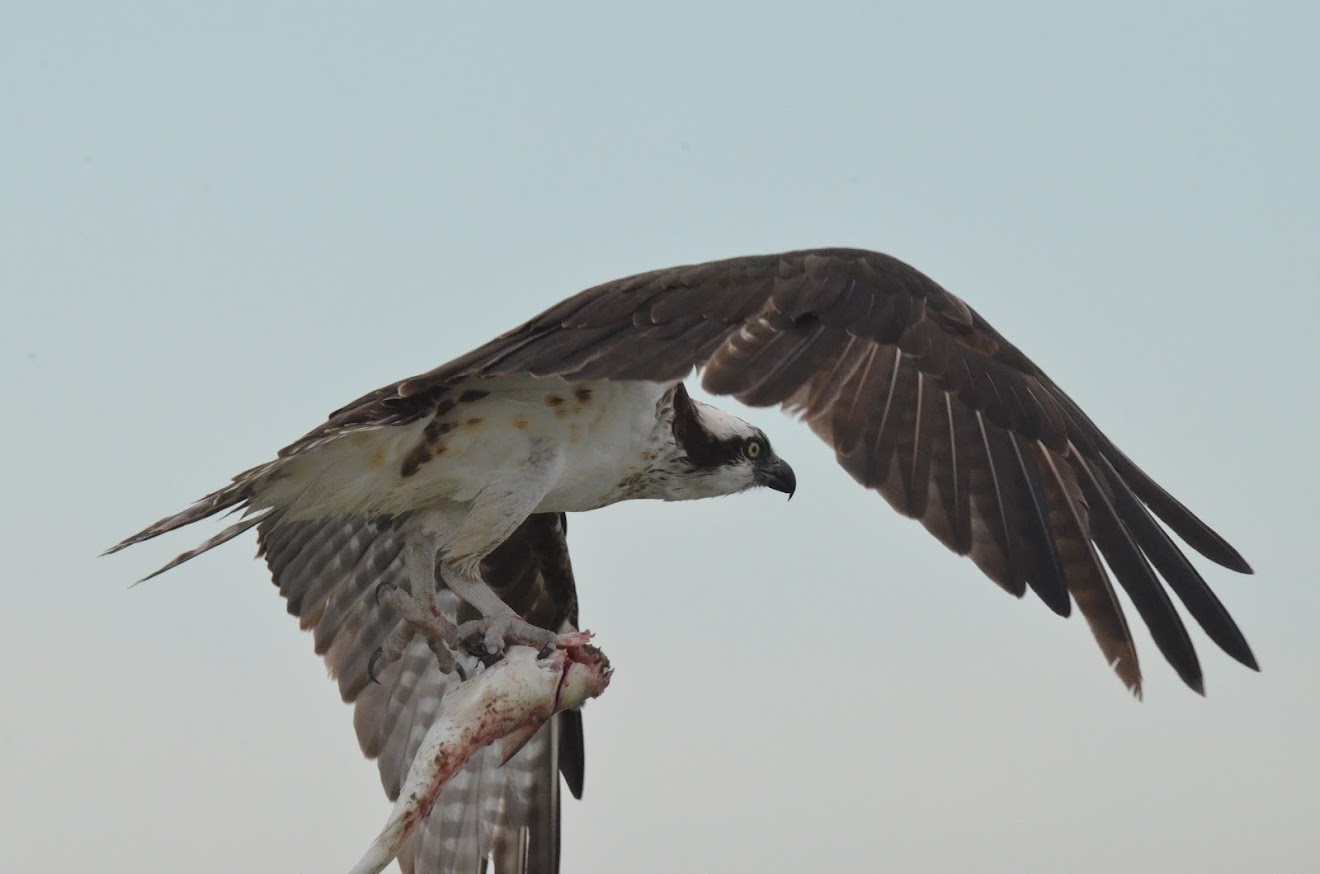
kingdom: Animalia
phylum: Chordata
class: Aves
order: Accipitriformes
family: Pandionidae
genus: Pandion
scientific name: Pandion haliaetus
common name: Osprey
